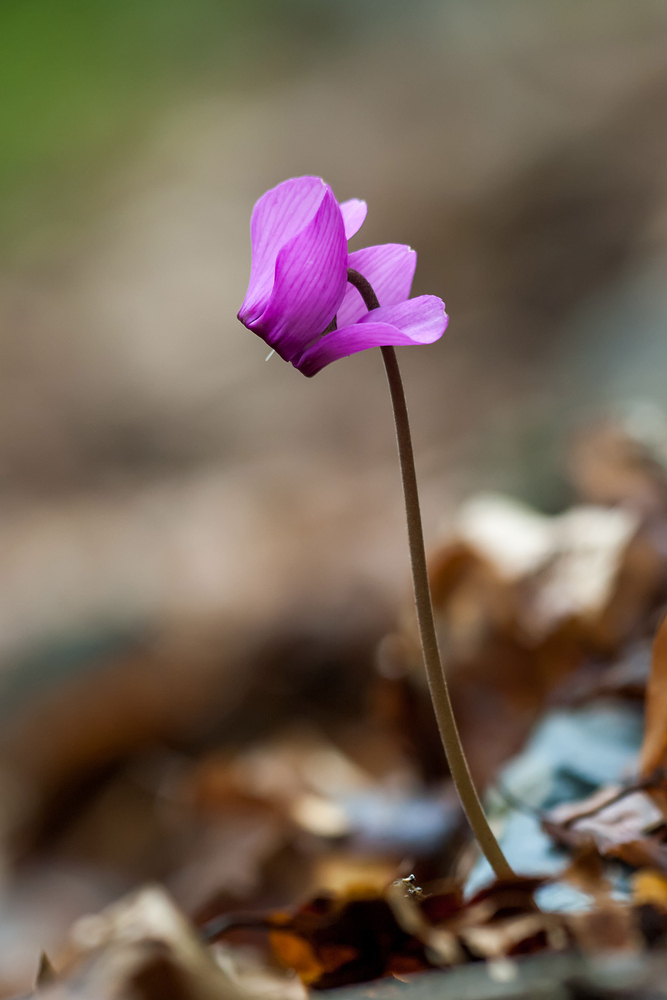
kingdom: Plantae
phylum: Tracheophyta
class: Magnoliopsida
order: Ericales
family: Primulaceae
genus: Cyclamen
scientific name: Cyclamen purpurascens
